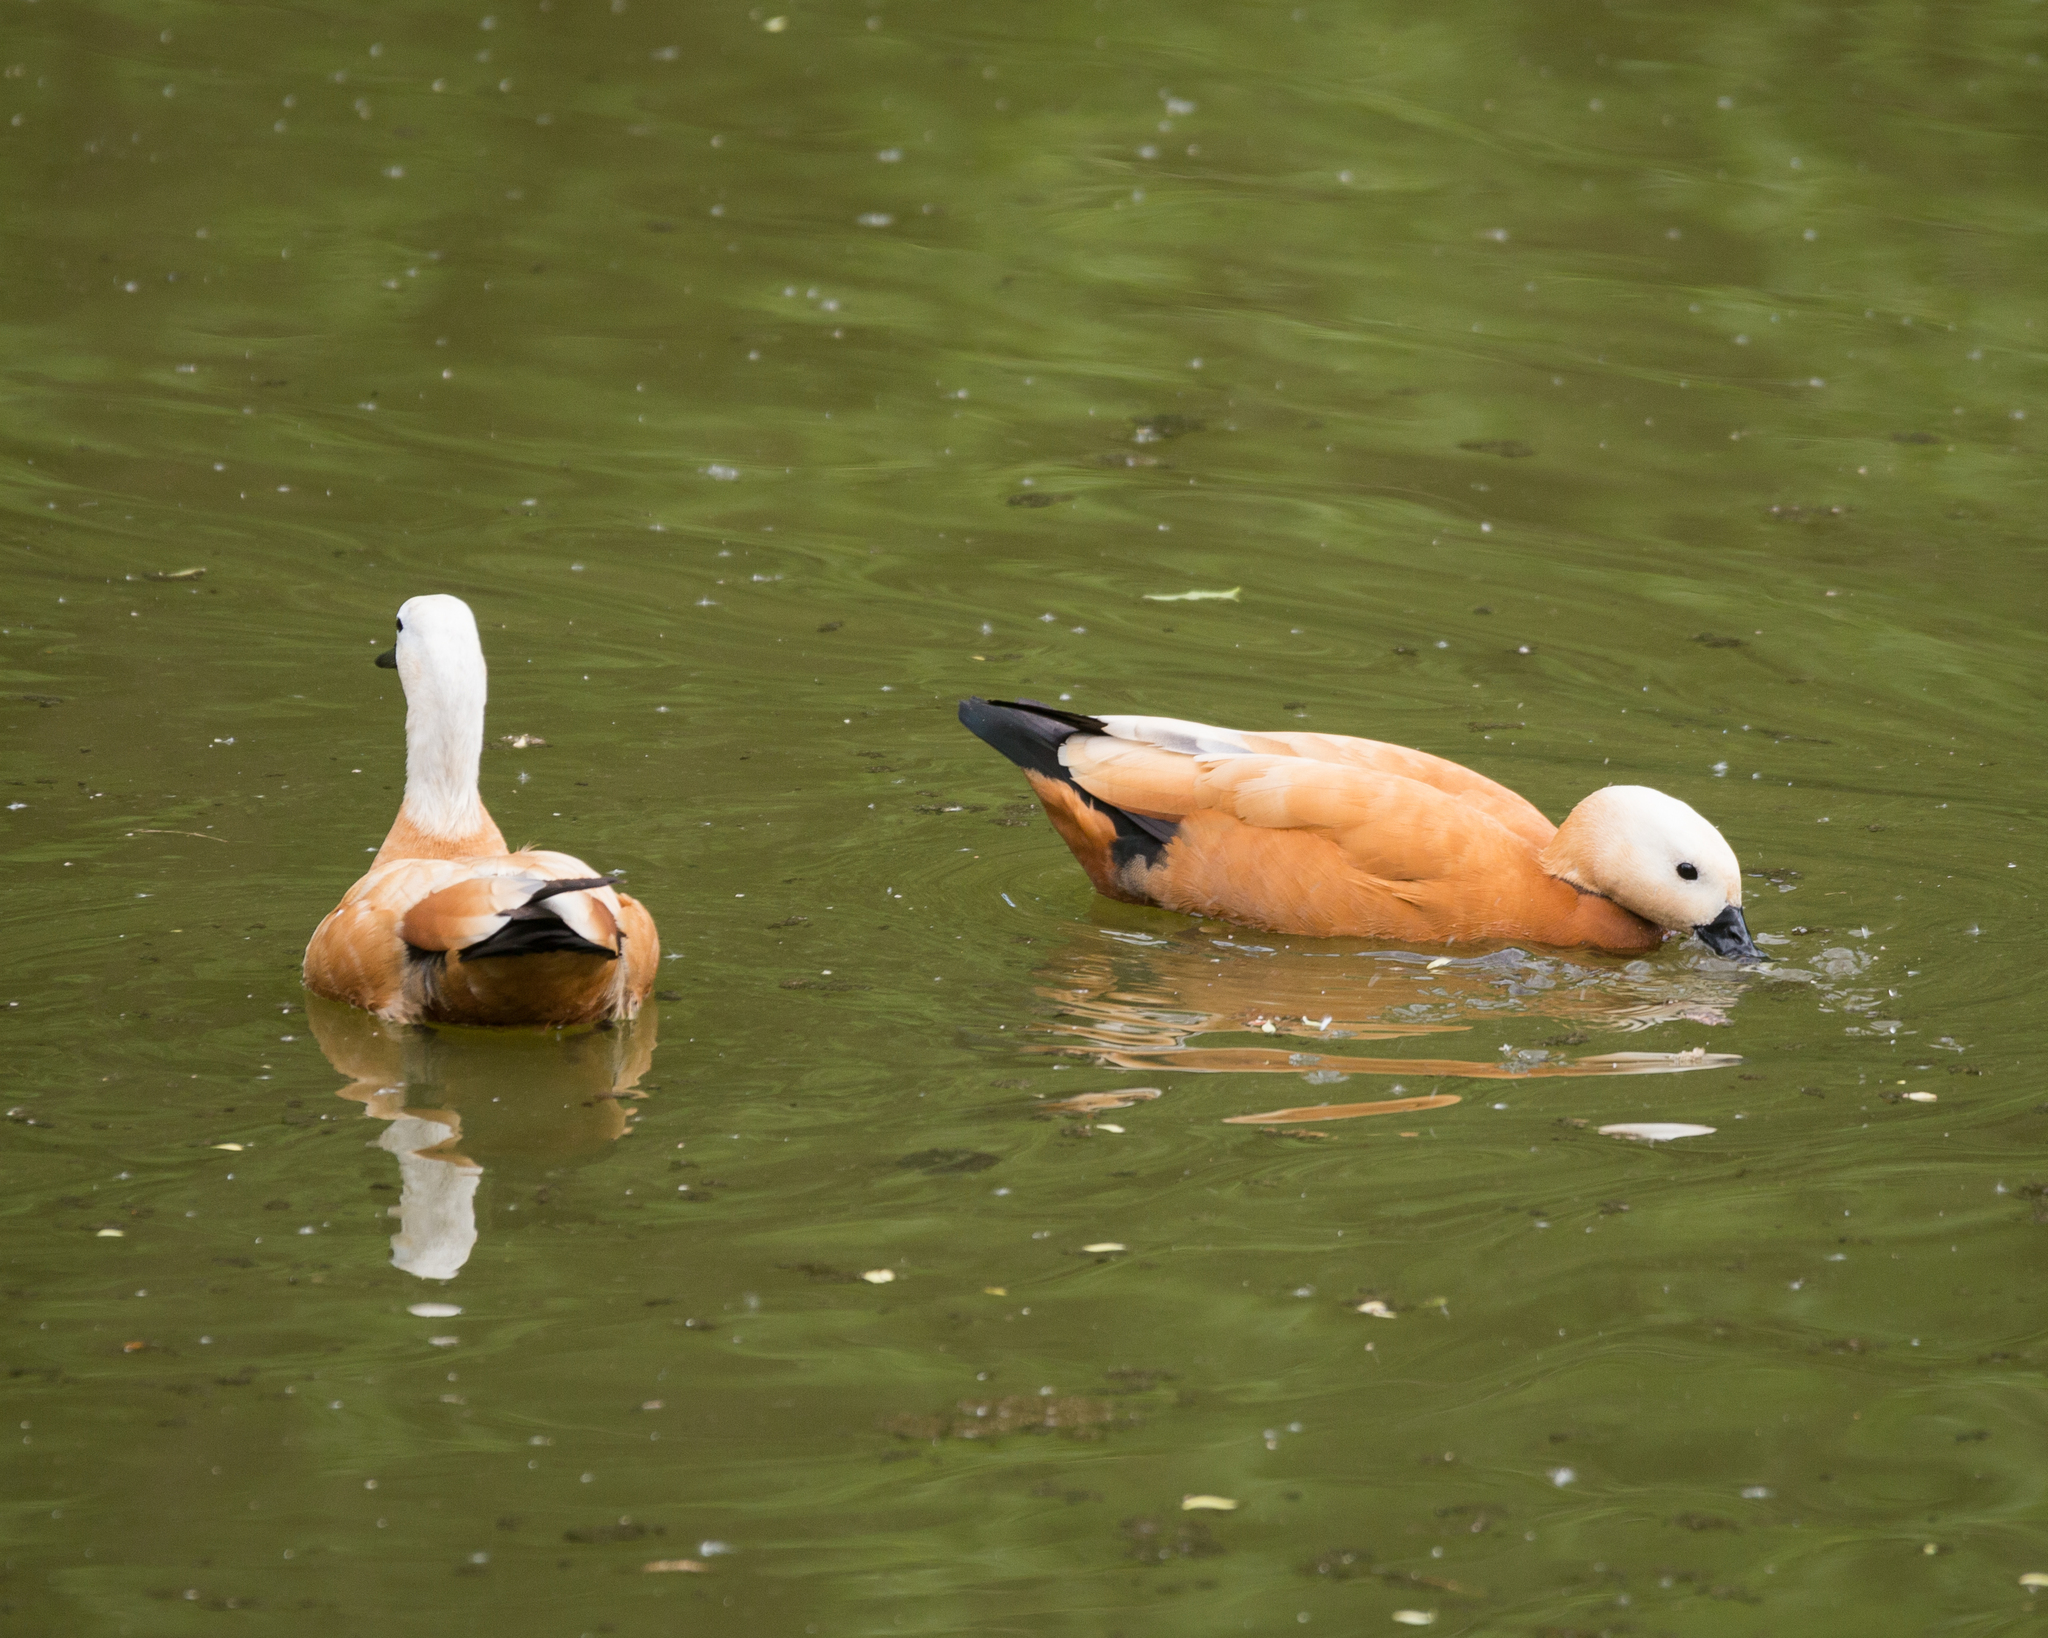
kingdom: Animalia
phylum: Chordata
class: Aves
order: Anseriformes
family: Anatidae
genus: Tadorna
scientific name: Tadorna ferruginea
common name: Ruddy shelduck
